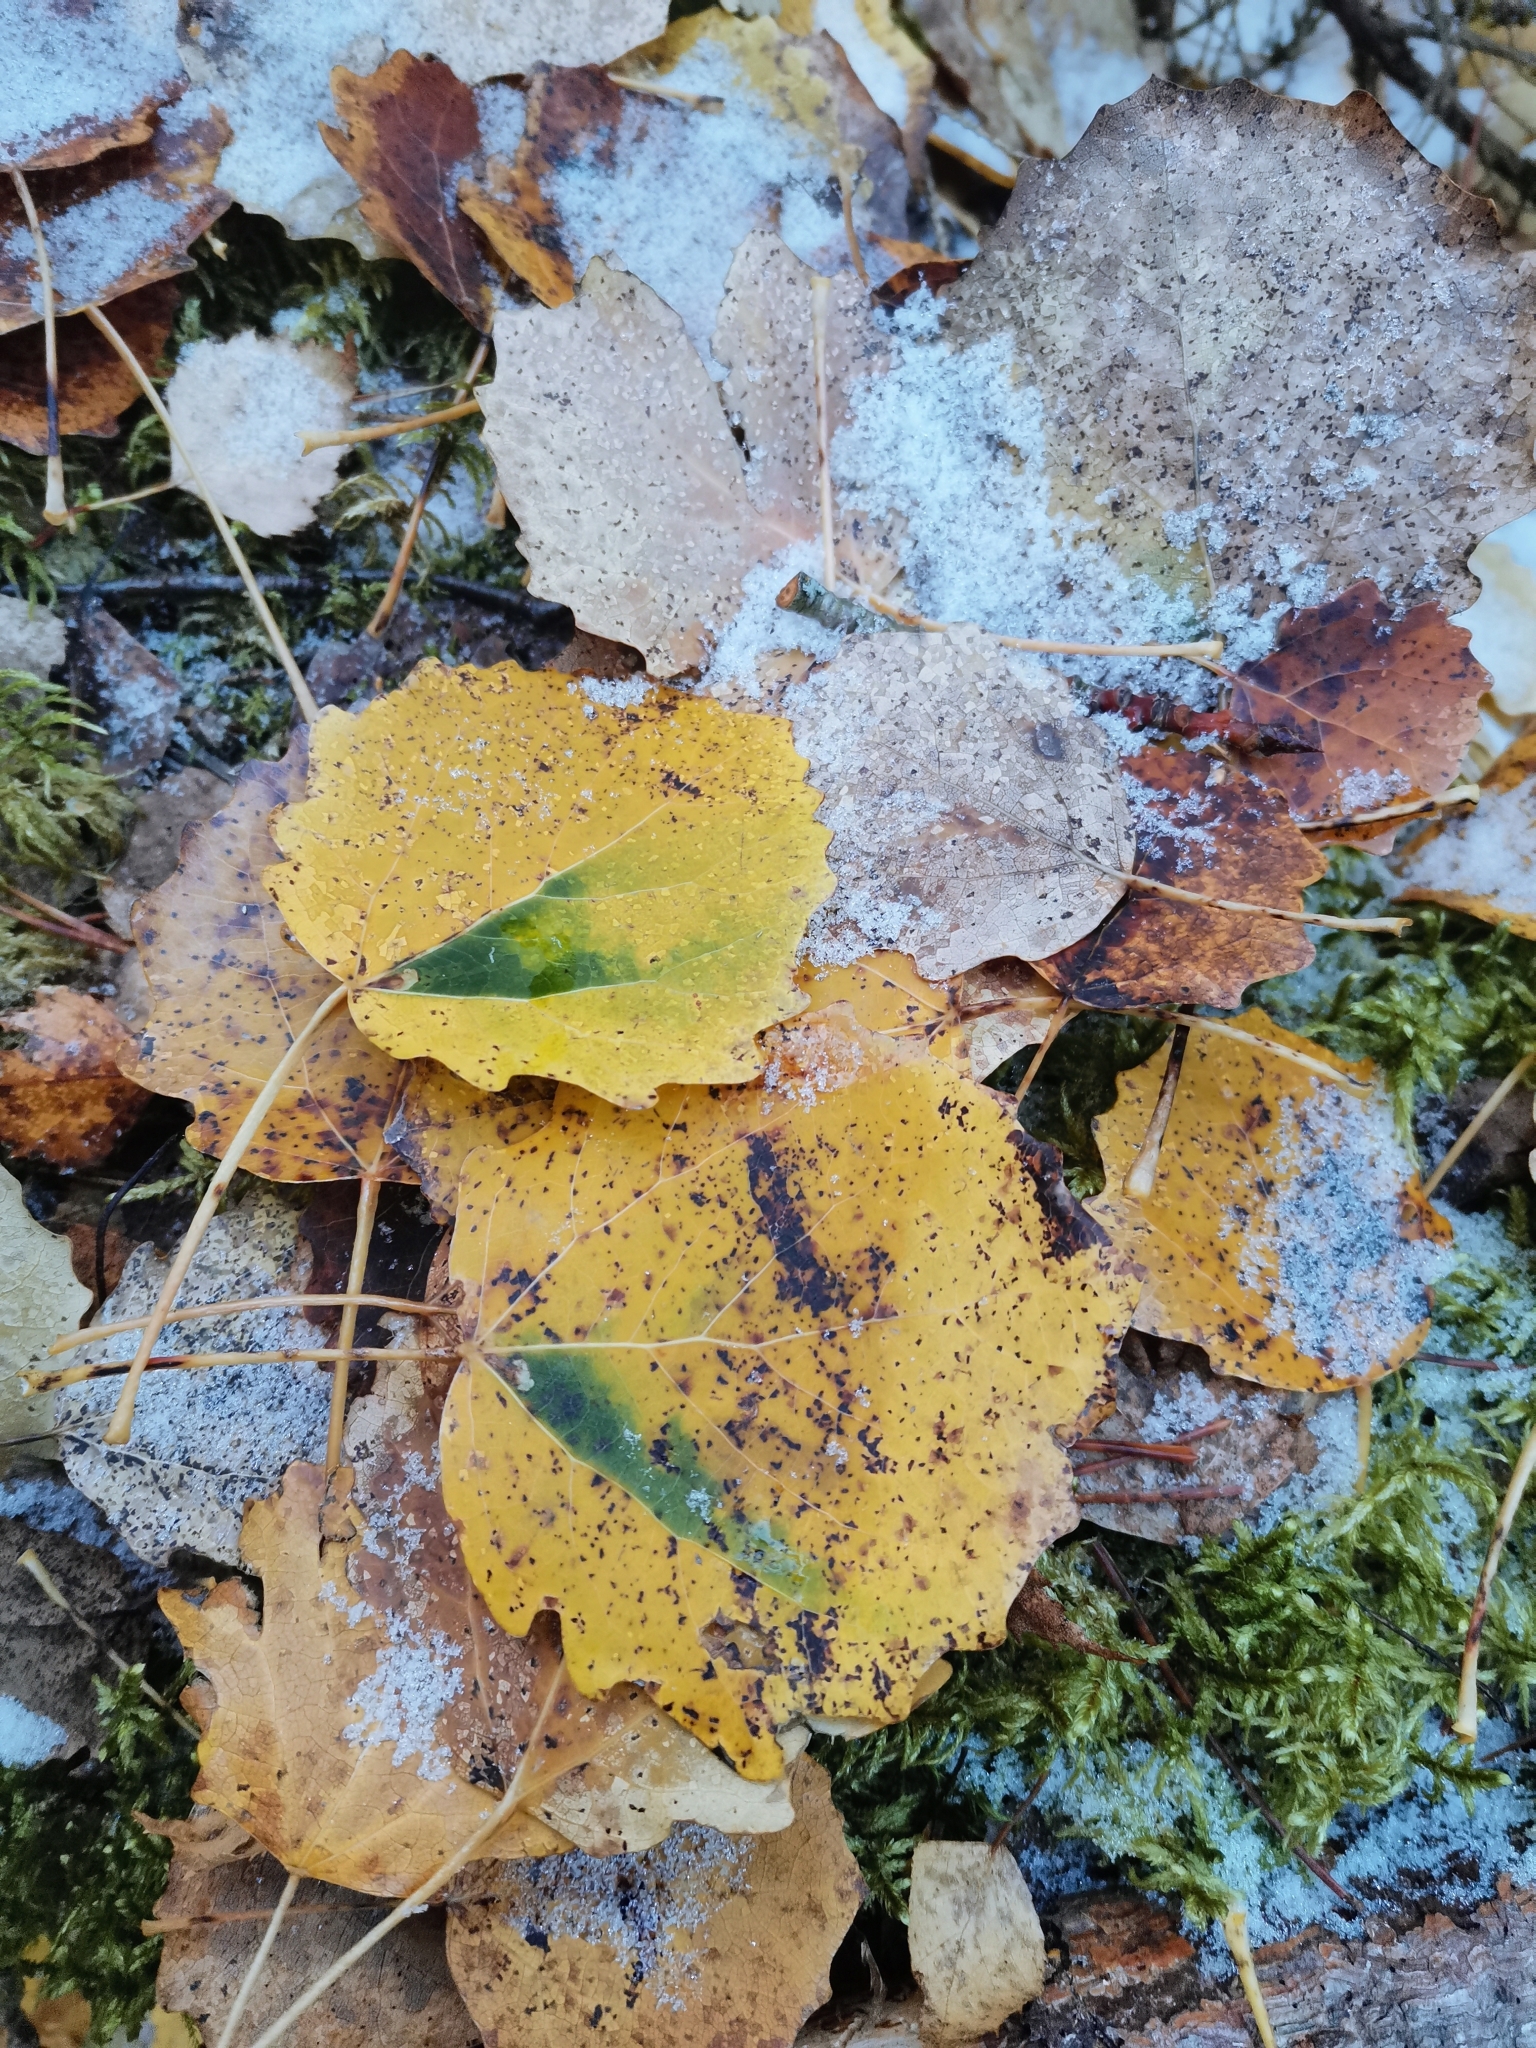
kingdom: Animalia
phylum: Arthropoda
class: Insecta
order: Lepidoptera
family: Nepticulidae
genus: Ectoedemia
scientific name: Ectoedemia argyropeza
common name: Virgin pigmy
